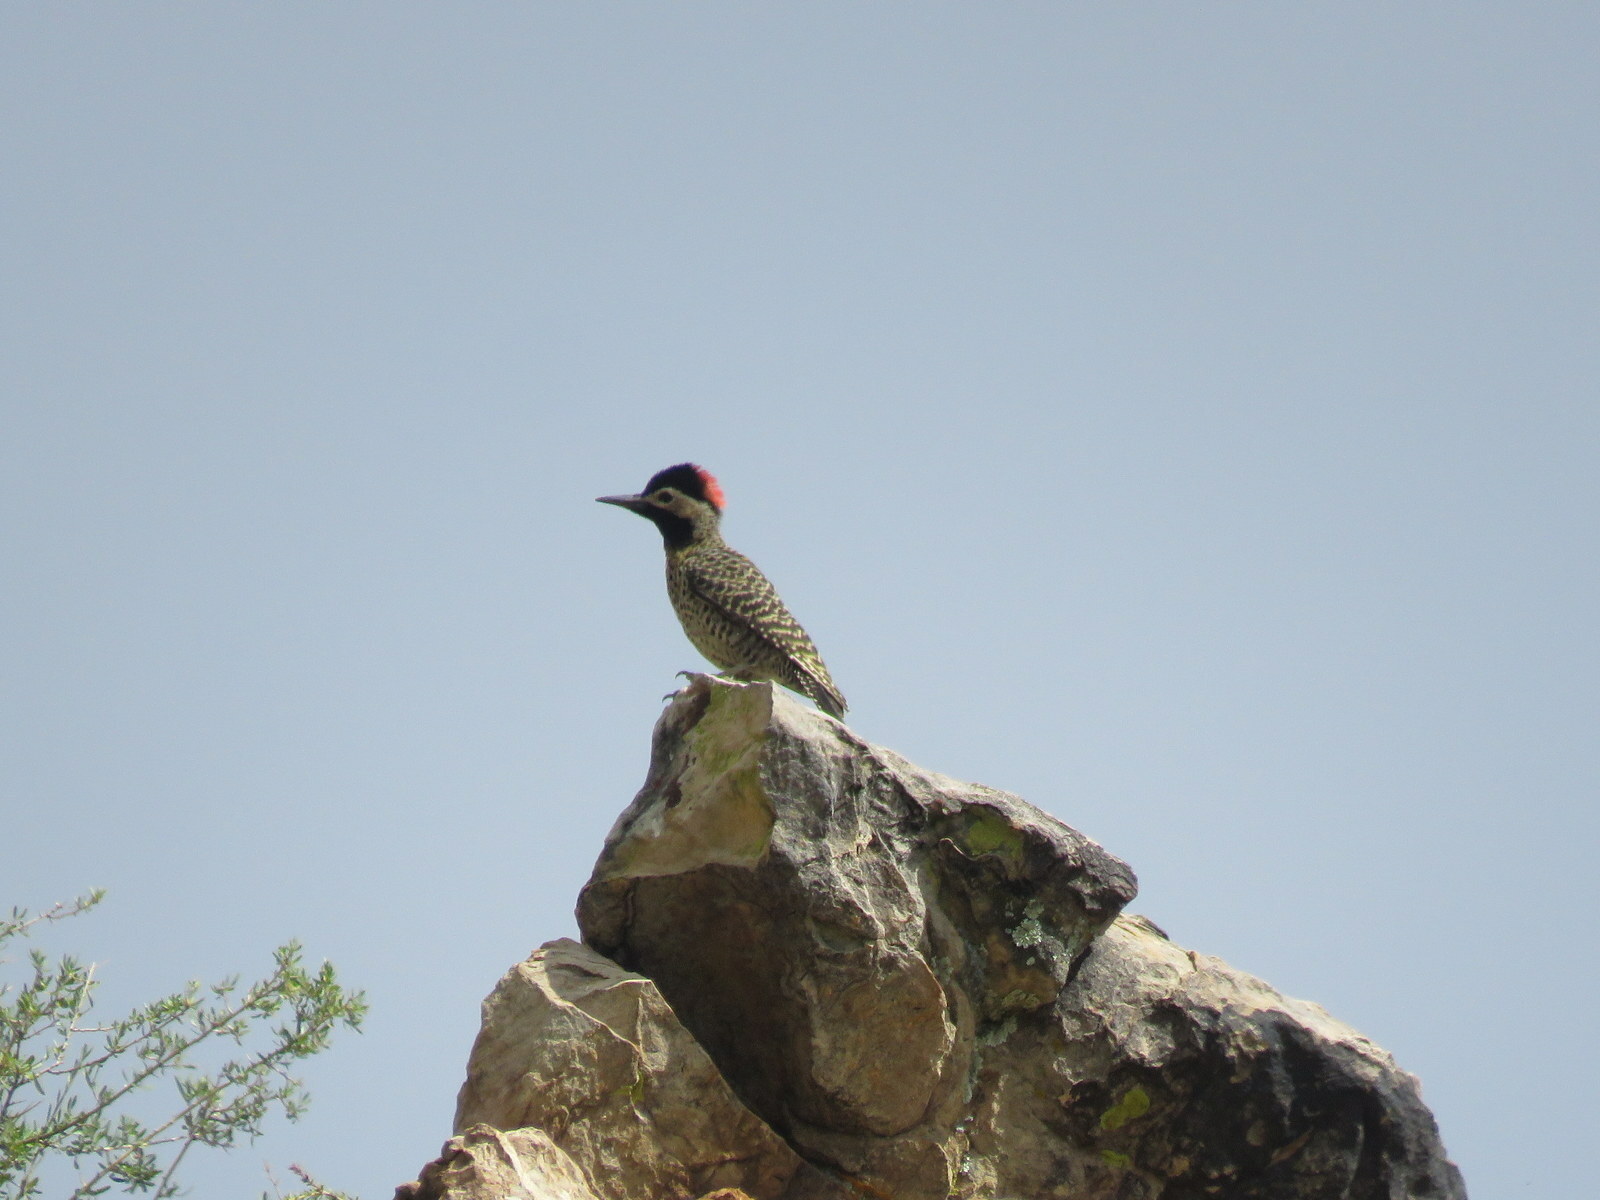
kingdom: Animalia
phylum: Chordata
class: Aves
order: Piciformes
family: Picidae
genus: Colaptes
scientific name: Colaptes melanochloros
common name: Green-barred woodpecker
